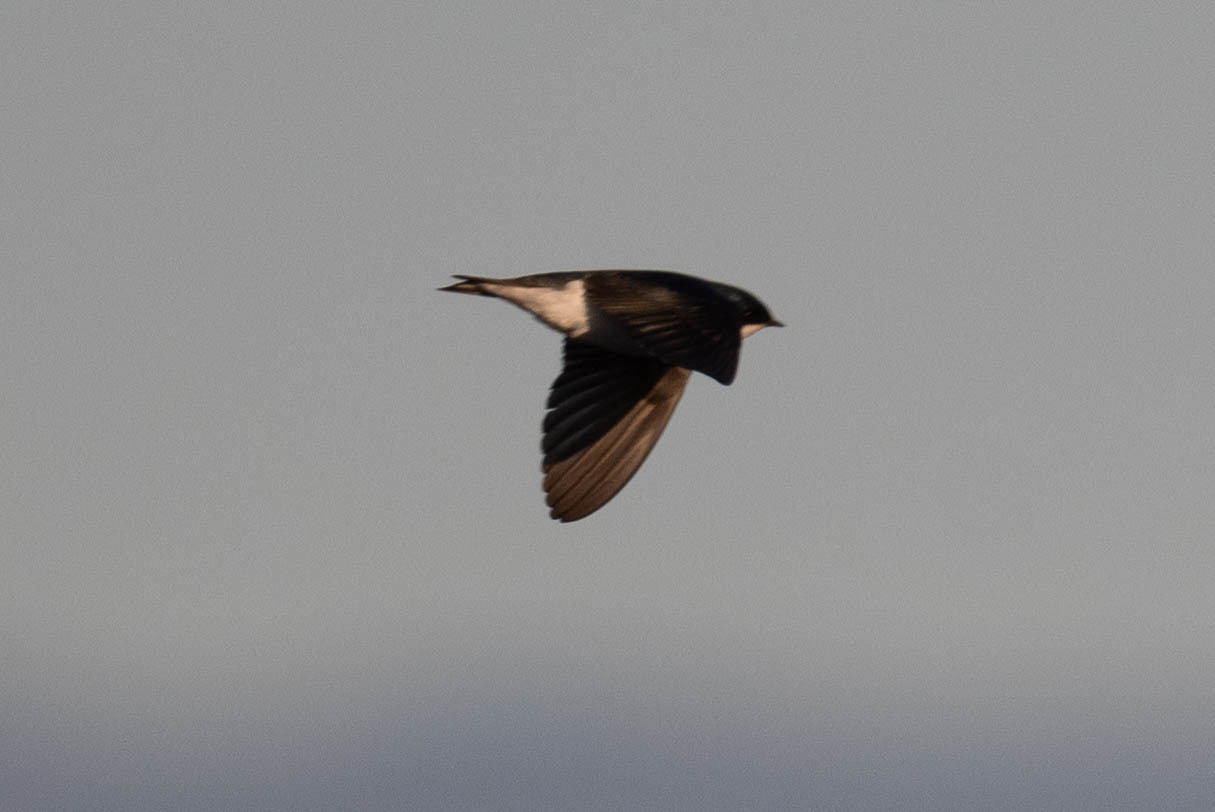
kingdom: Animalia
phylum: Chordata
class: Aves
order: Passeriformes
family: Hirundinidae
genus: Tachycineta
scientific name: Tachycineta bicolor
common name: Tree swallow
